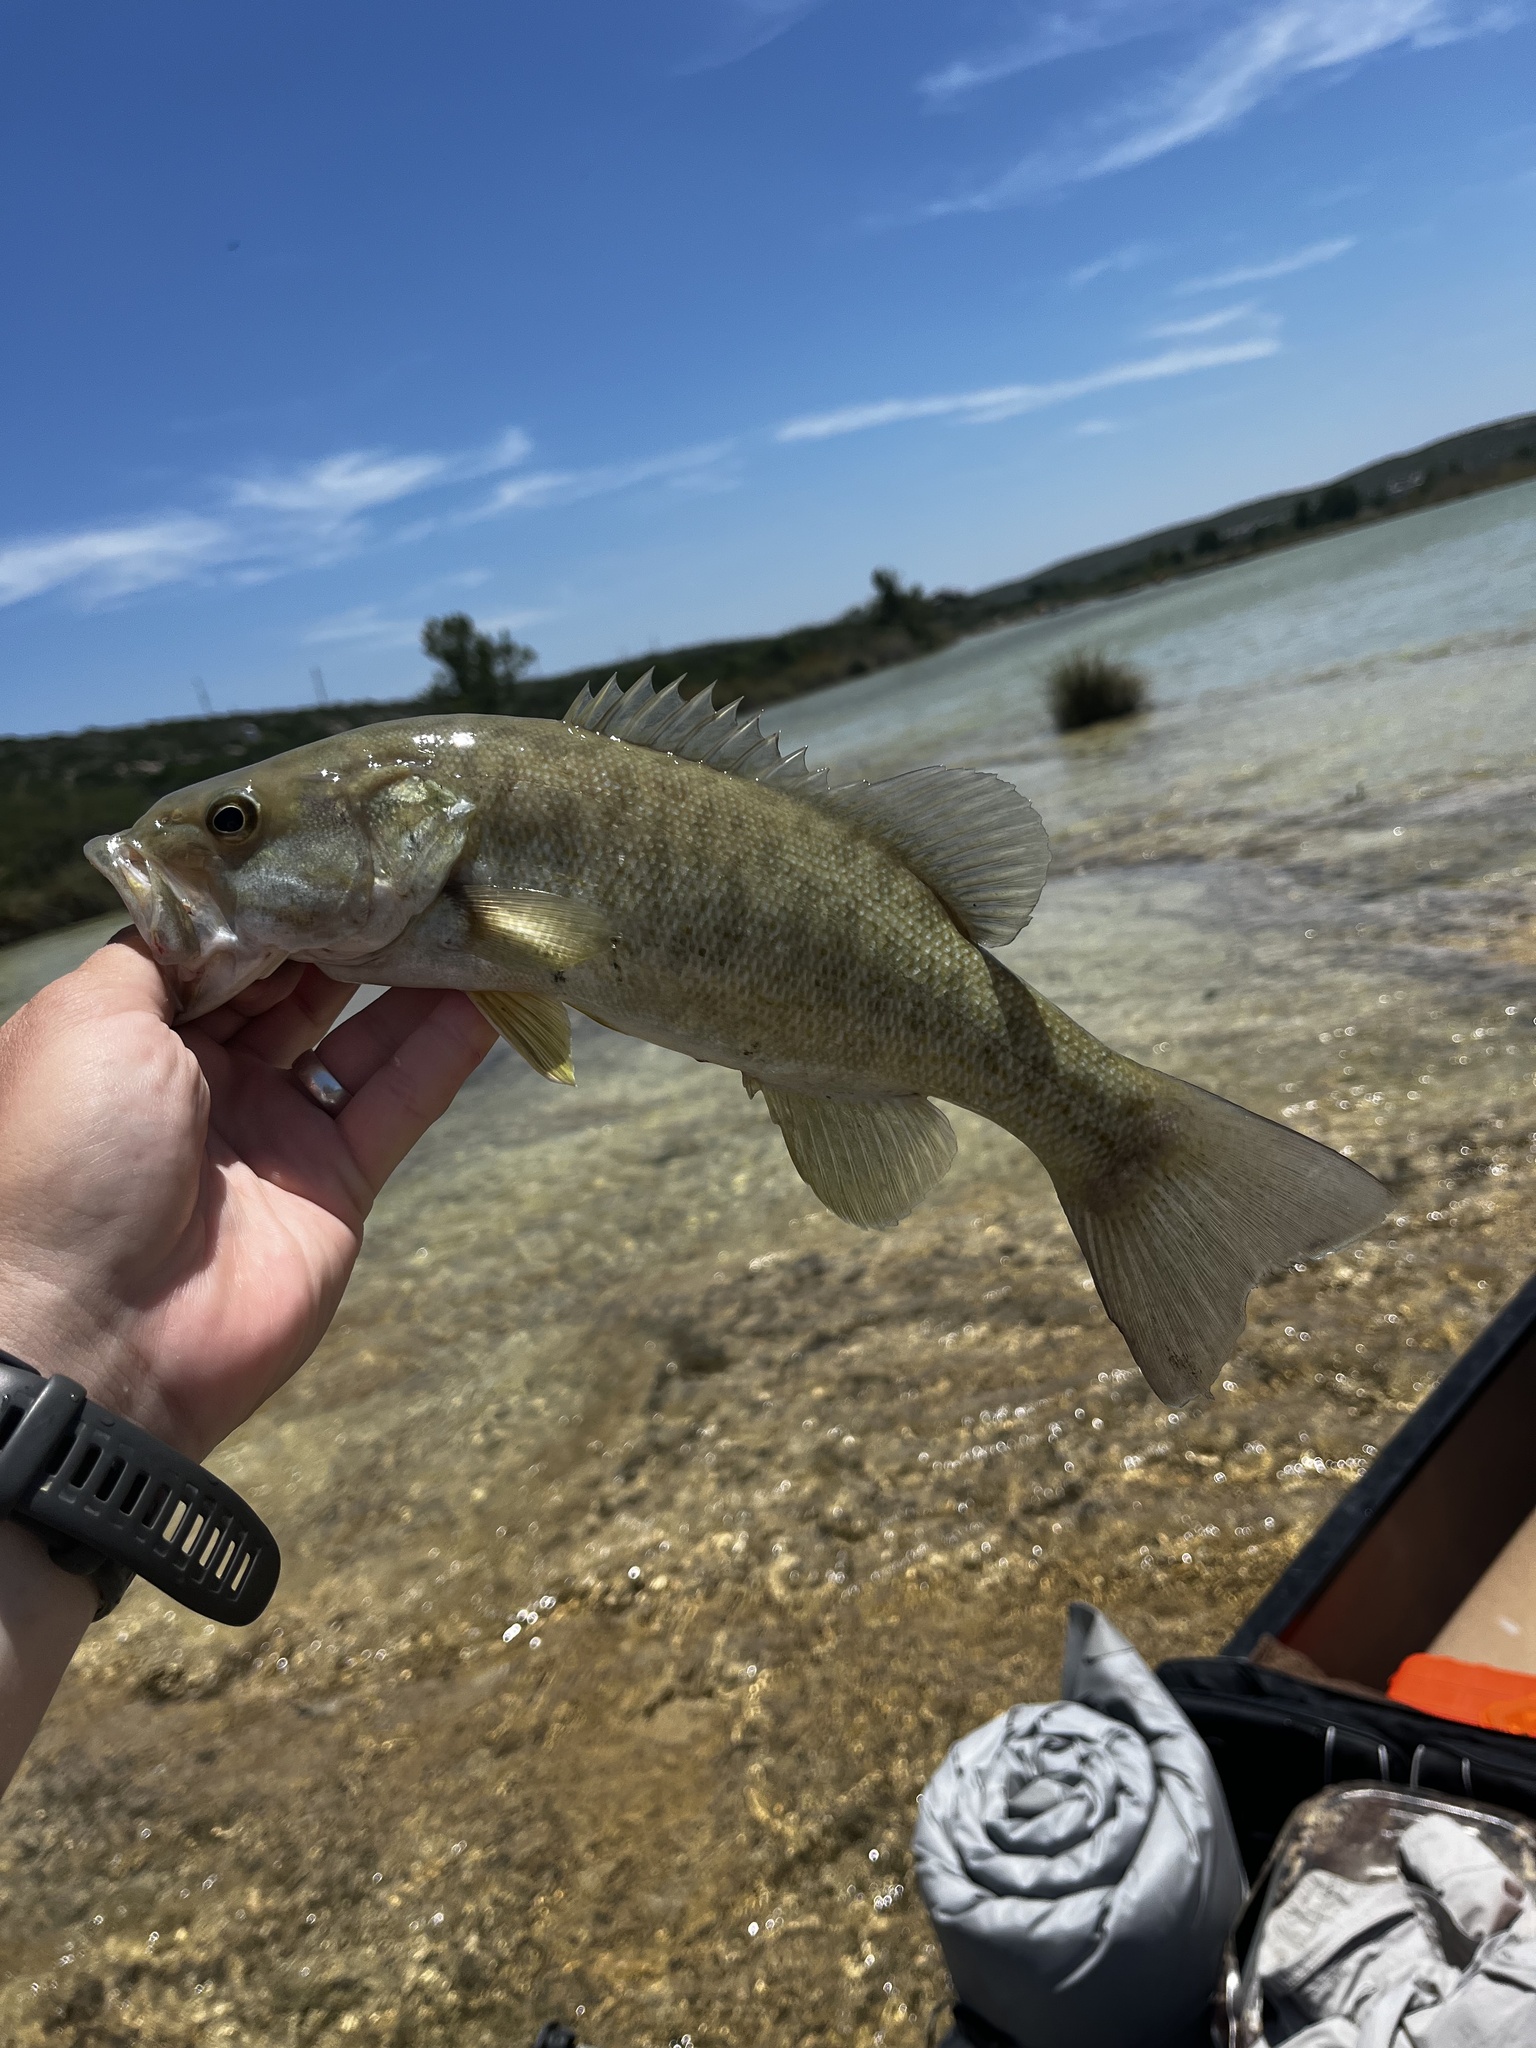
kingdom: Animalia
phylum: Chordata
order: Perciformes
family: Centrarchidae
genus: Micropterus
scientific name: Micropterus dolomieu
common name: Smallmouth bass
